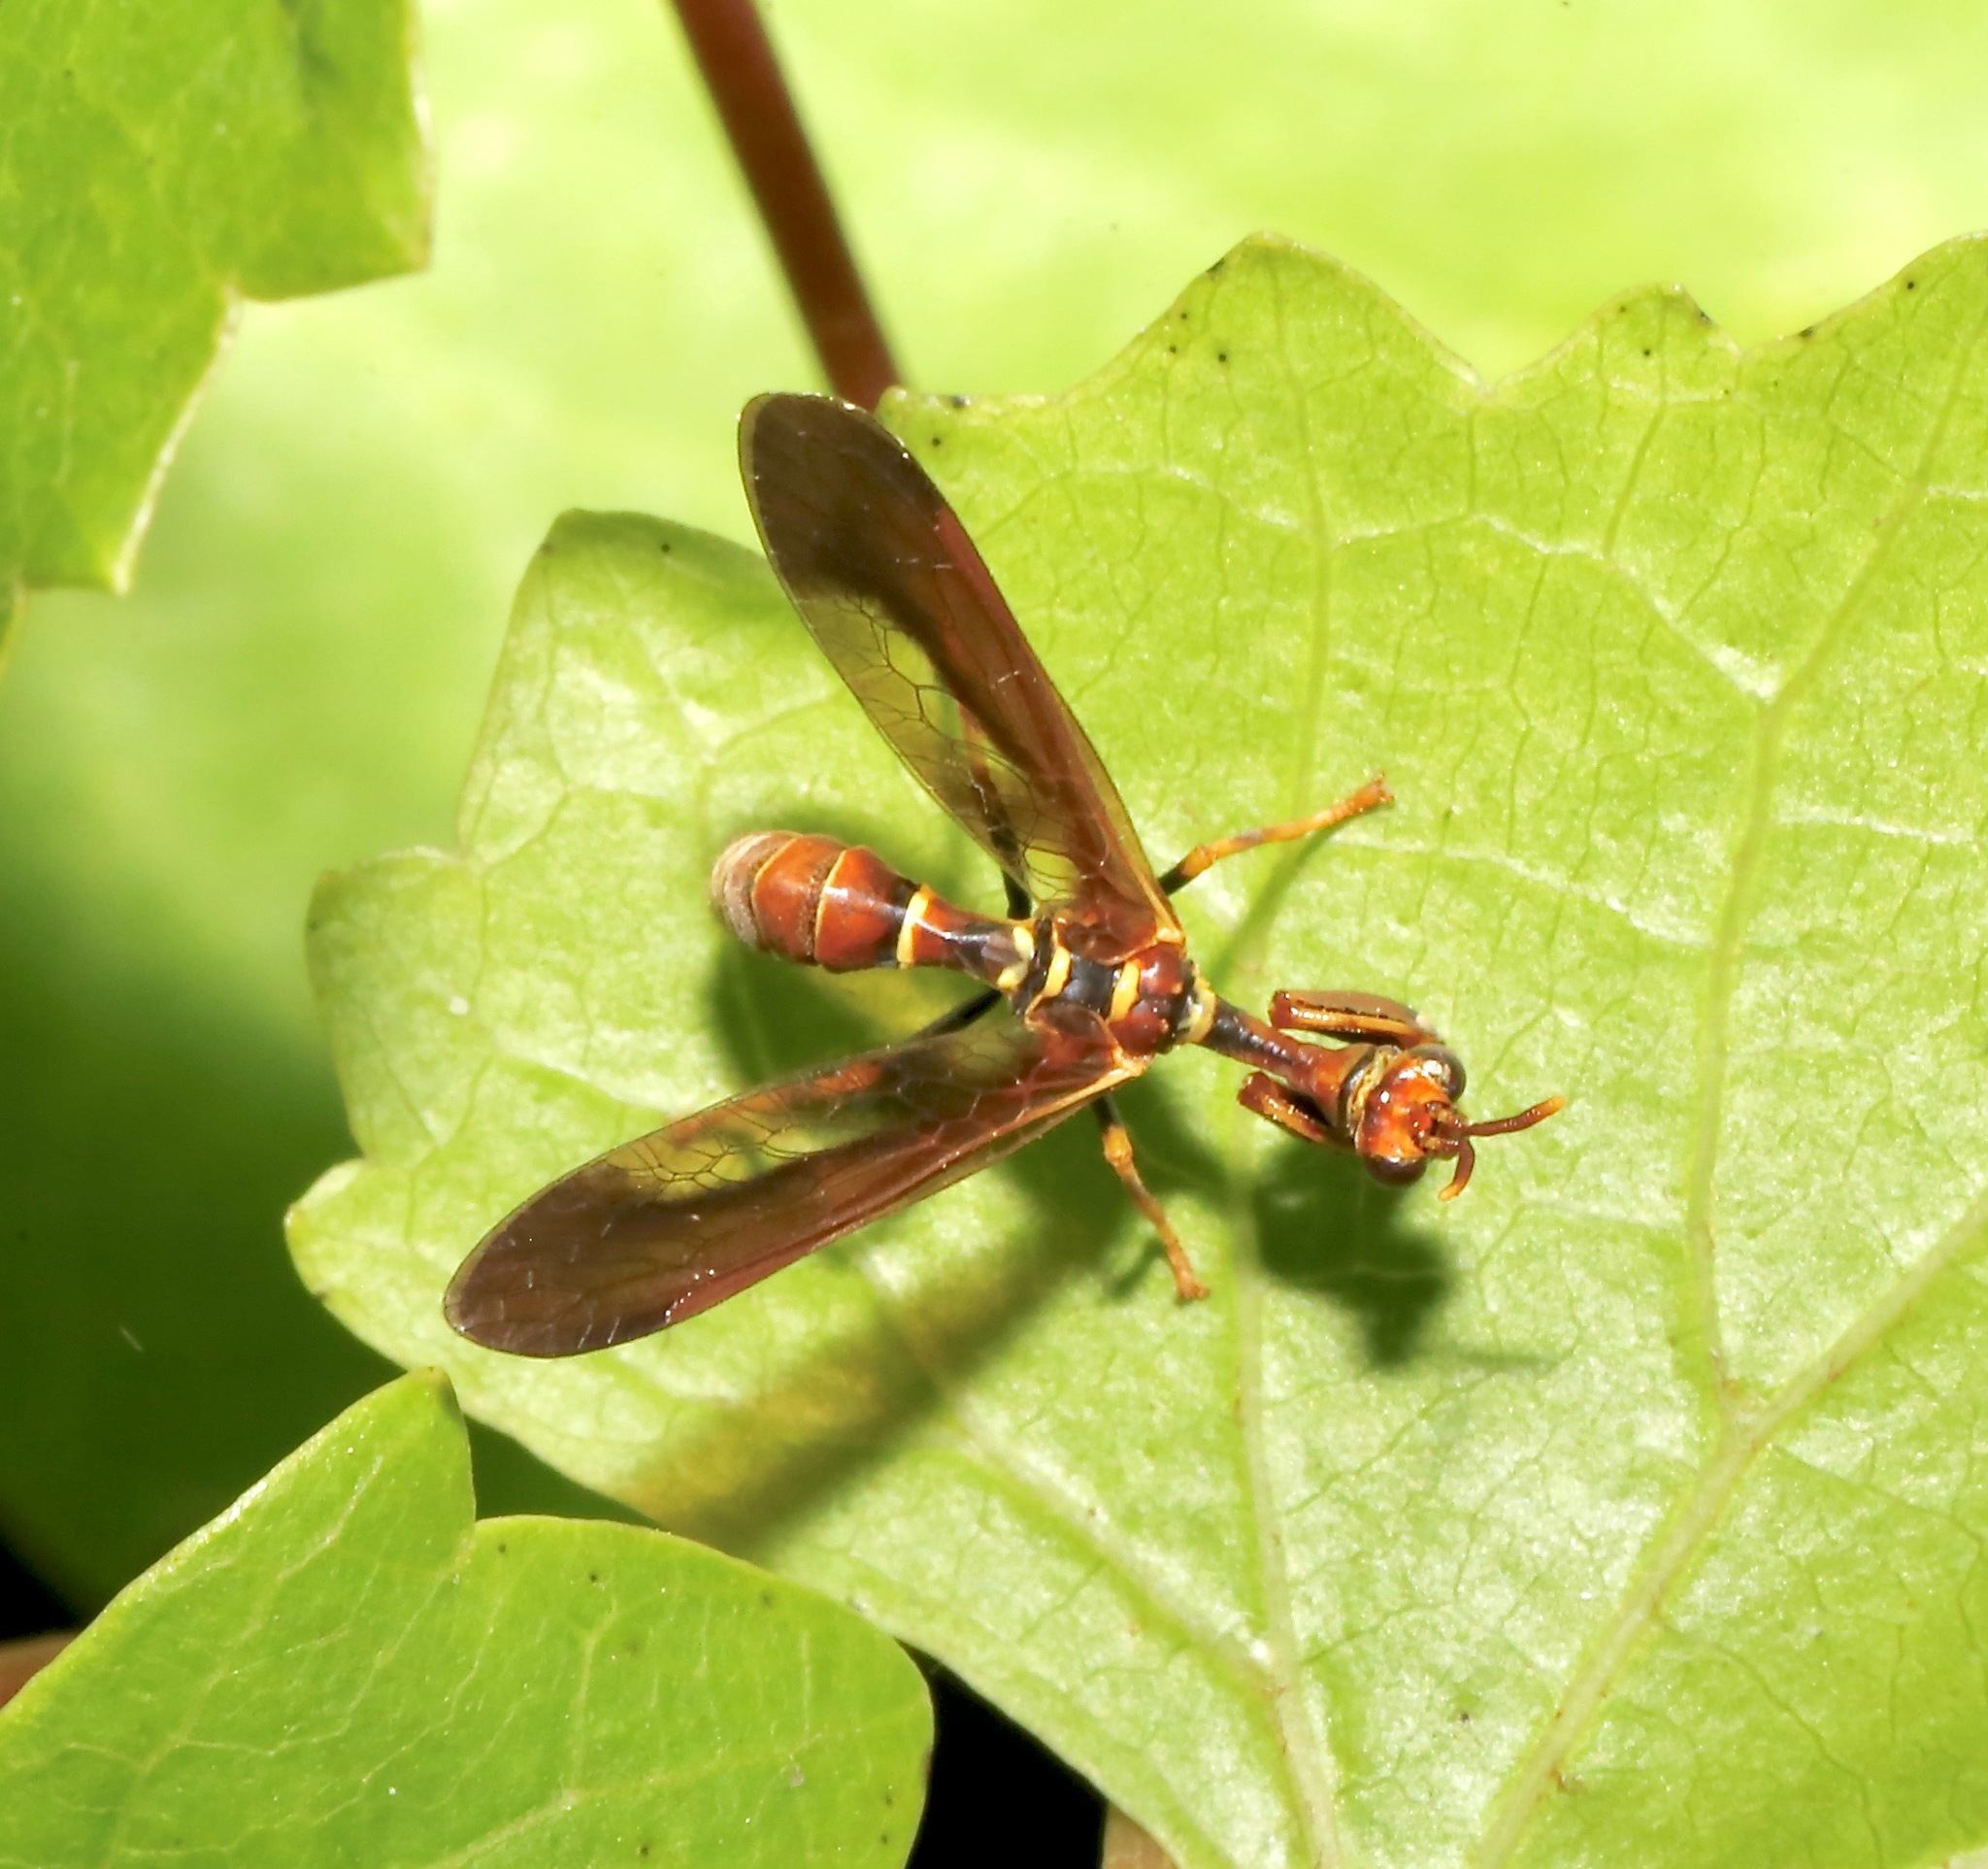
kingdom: Animalia
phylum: Arthropoda
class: Insecta
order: Neuroptera
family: Mantispidae
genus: Climaciella
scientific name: Climaciella brunnea
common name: Brown wasp mantidfly
